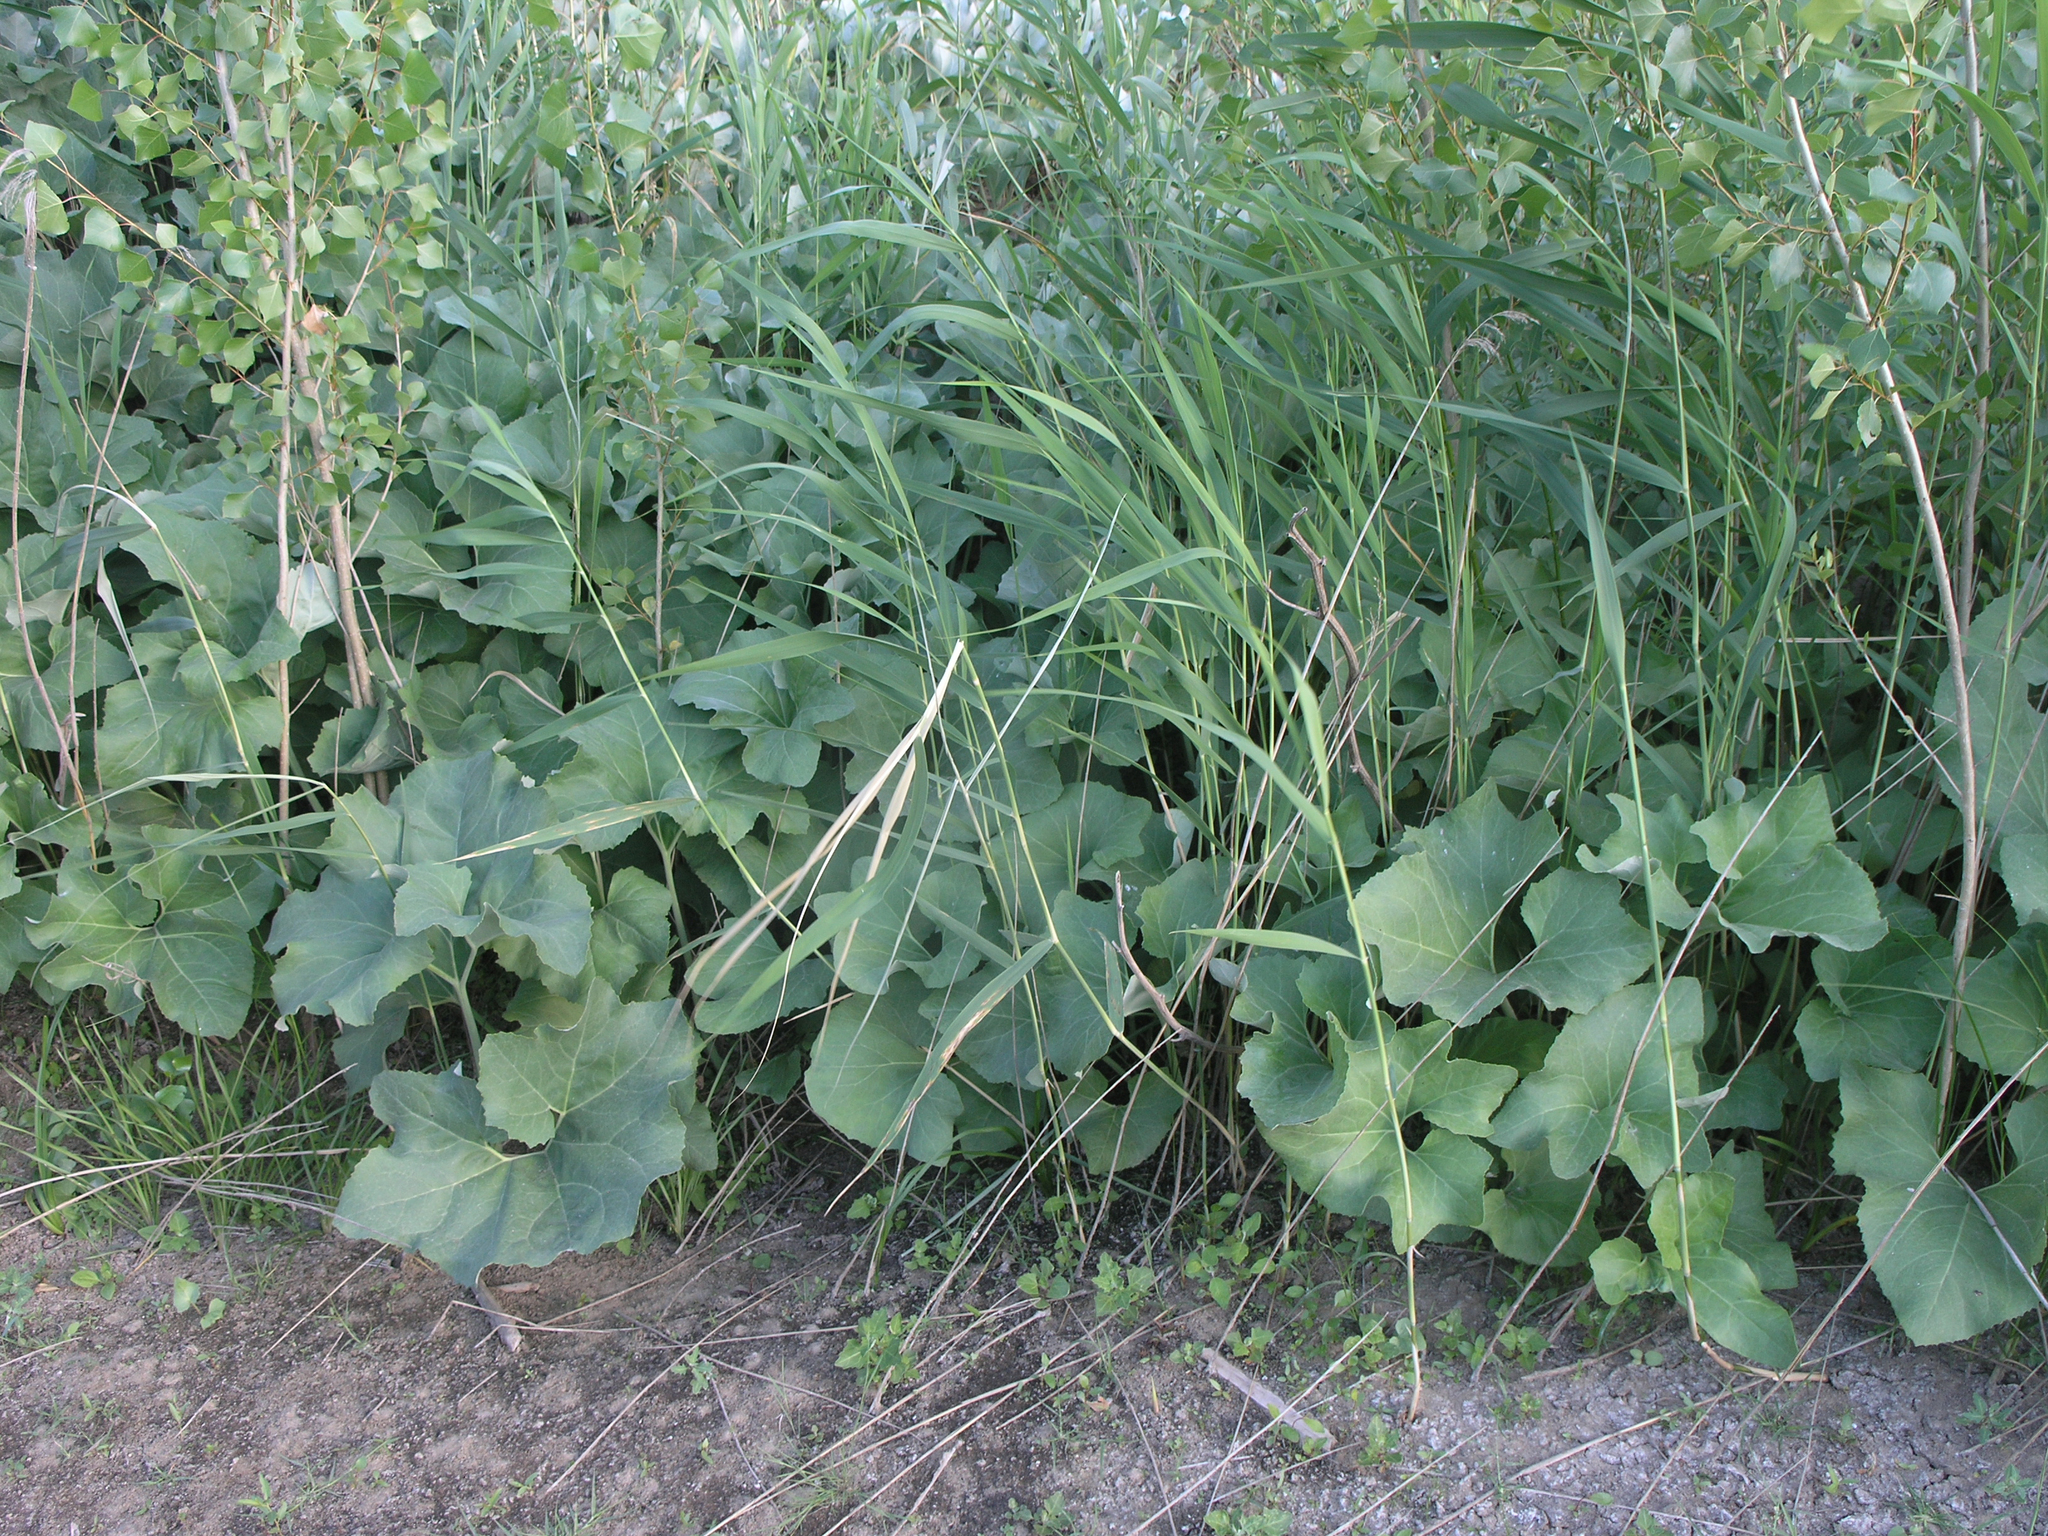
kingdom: Plantae
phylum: Tracheophyta
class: Magnoliopsida
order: Asterales
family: Asteraceae
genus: Tussilago
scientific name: Tussilago farfara
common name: Coltsfoot
